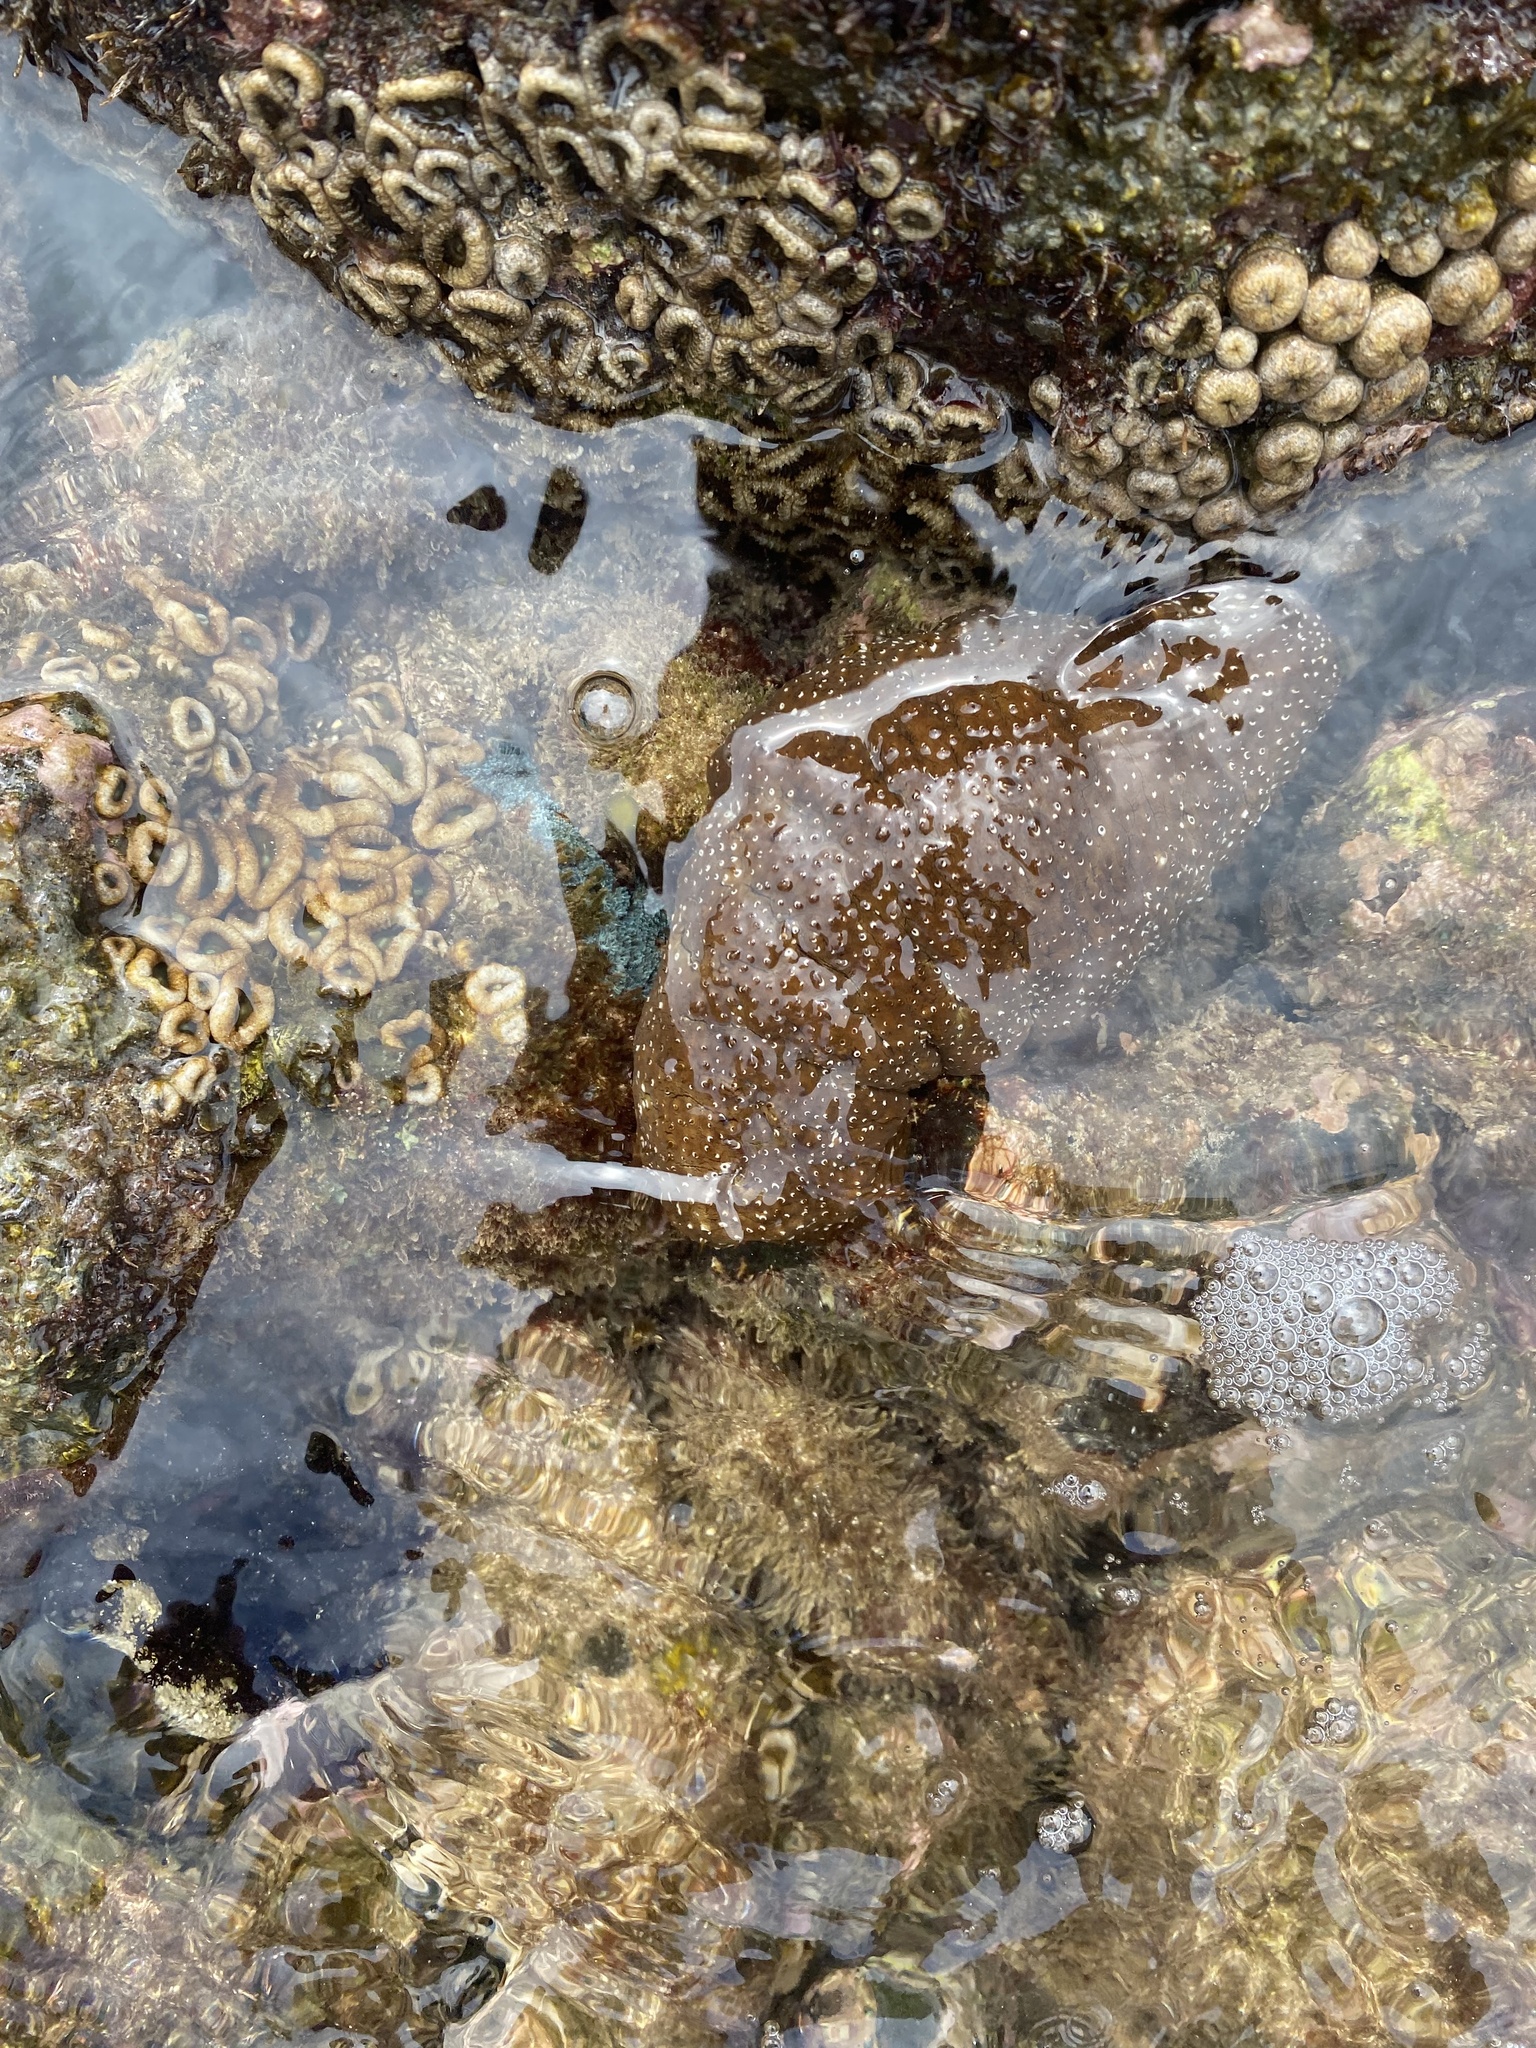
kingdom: Animalia
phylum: Echinodermata
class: Holothuroidea
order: Holothuriida
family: Holothuriidae
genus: Actinopyga
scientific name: Actinopyga varians
